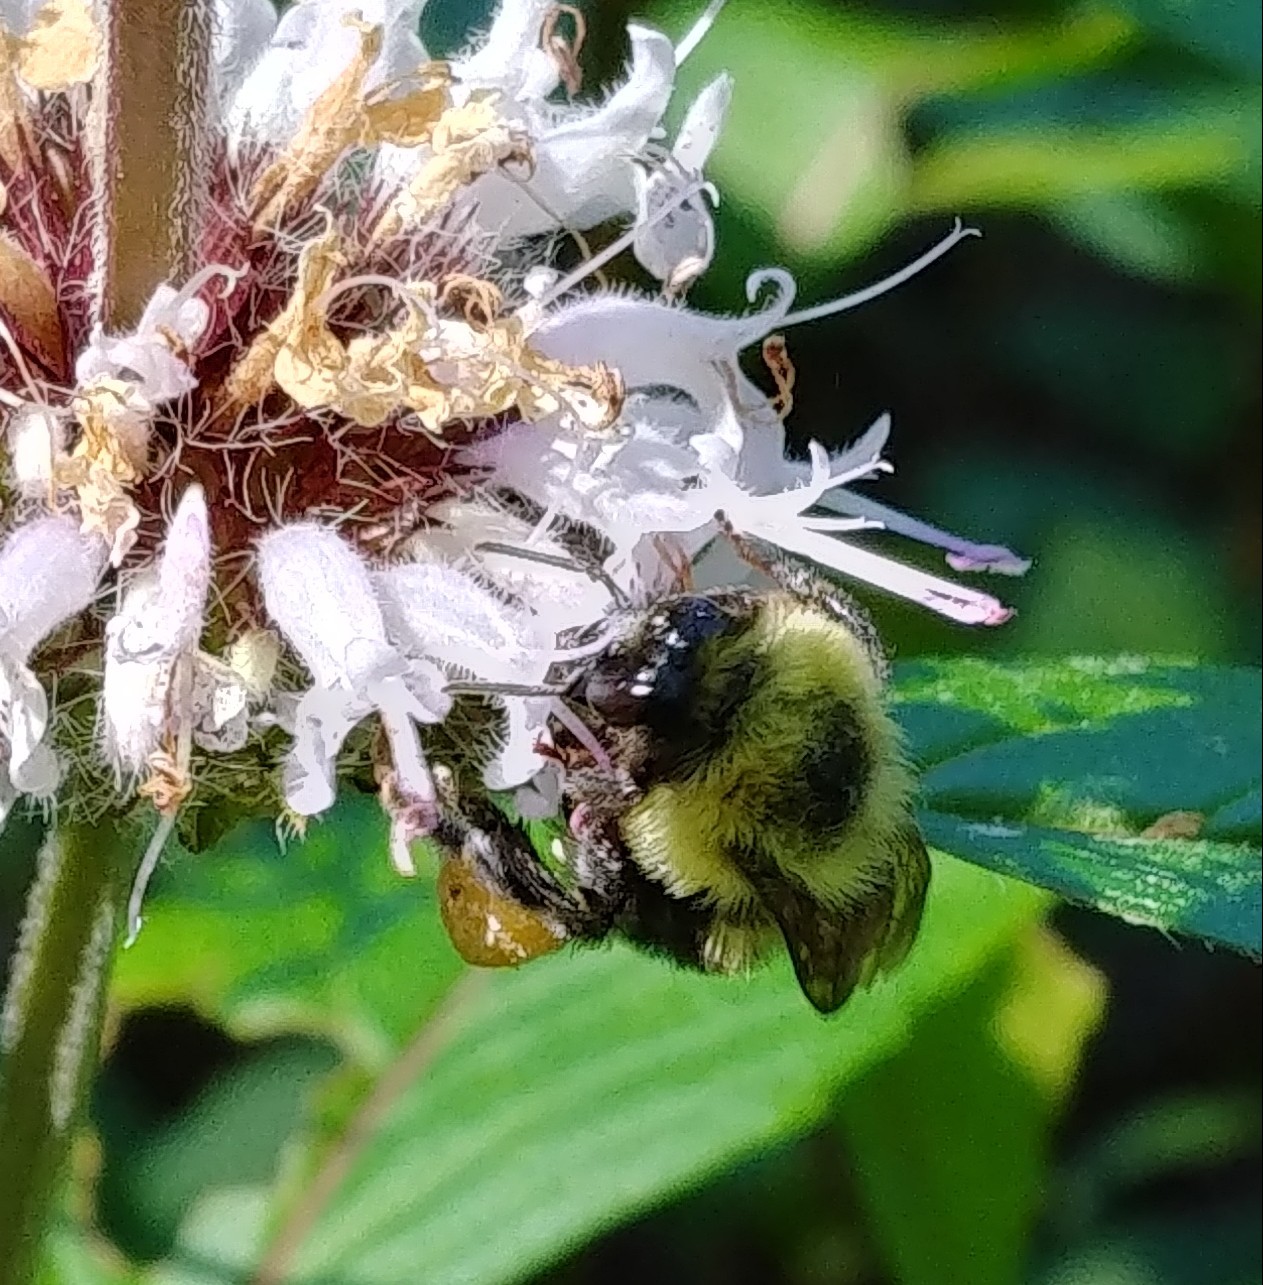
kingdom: Animalia
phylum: Arthropoda
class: Insecta
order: Hymenoptera
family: Apidae
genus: Bombus
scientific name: Bombus bimaculatus
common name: Two-spotted bumble bee
